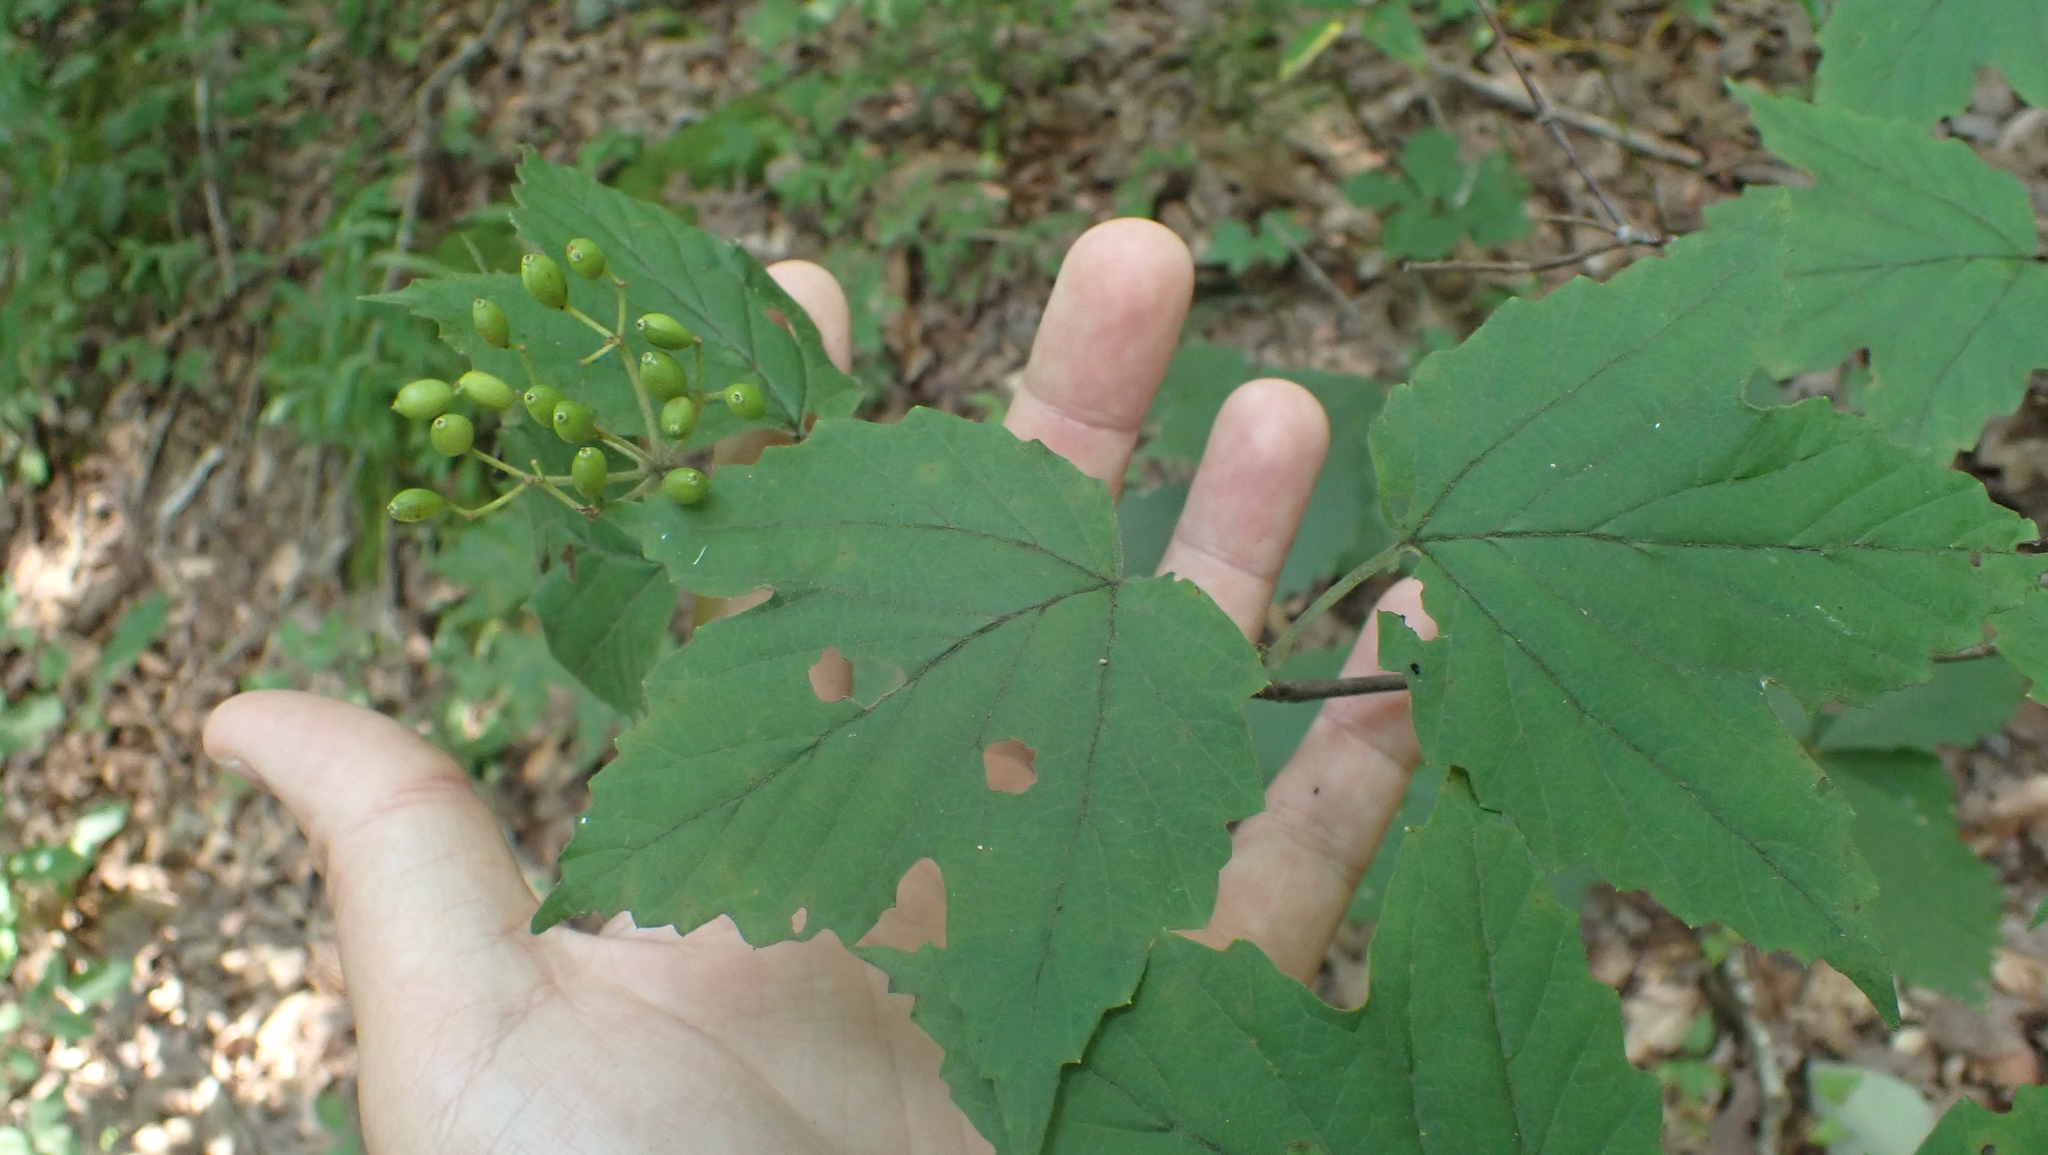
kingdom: Plantae
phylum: Tracheophyta
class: Magnoliopsida
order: Dipsacales
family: Viburnaceae
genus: Viburnum
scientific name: Viburnum acerifolium
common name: Dockmackie
